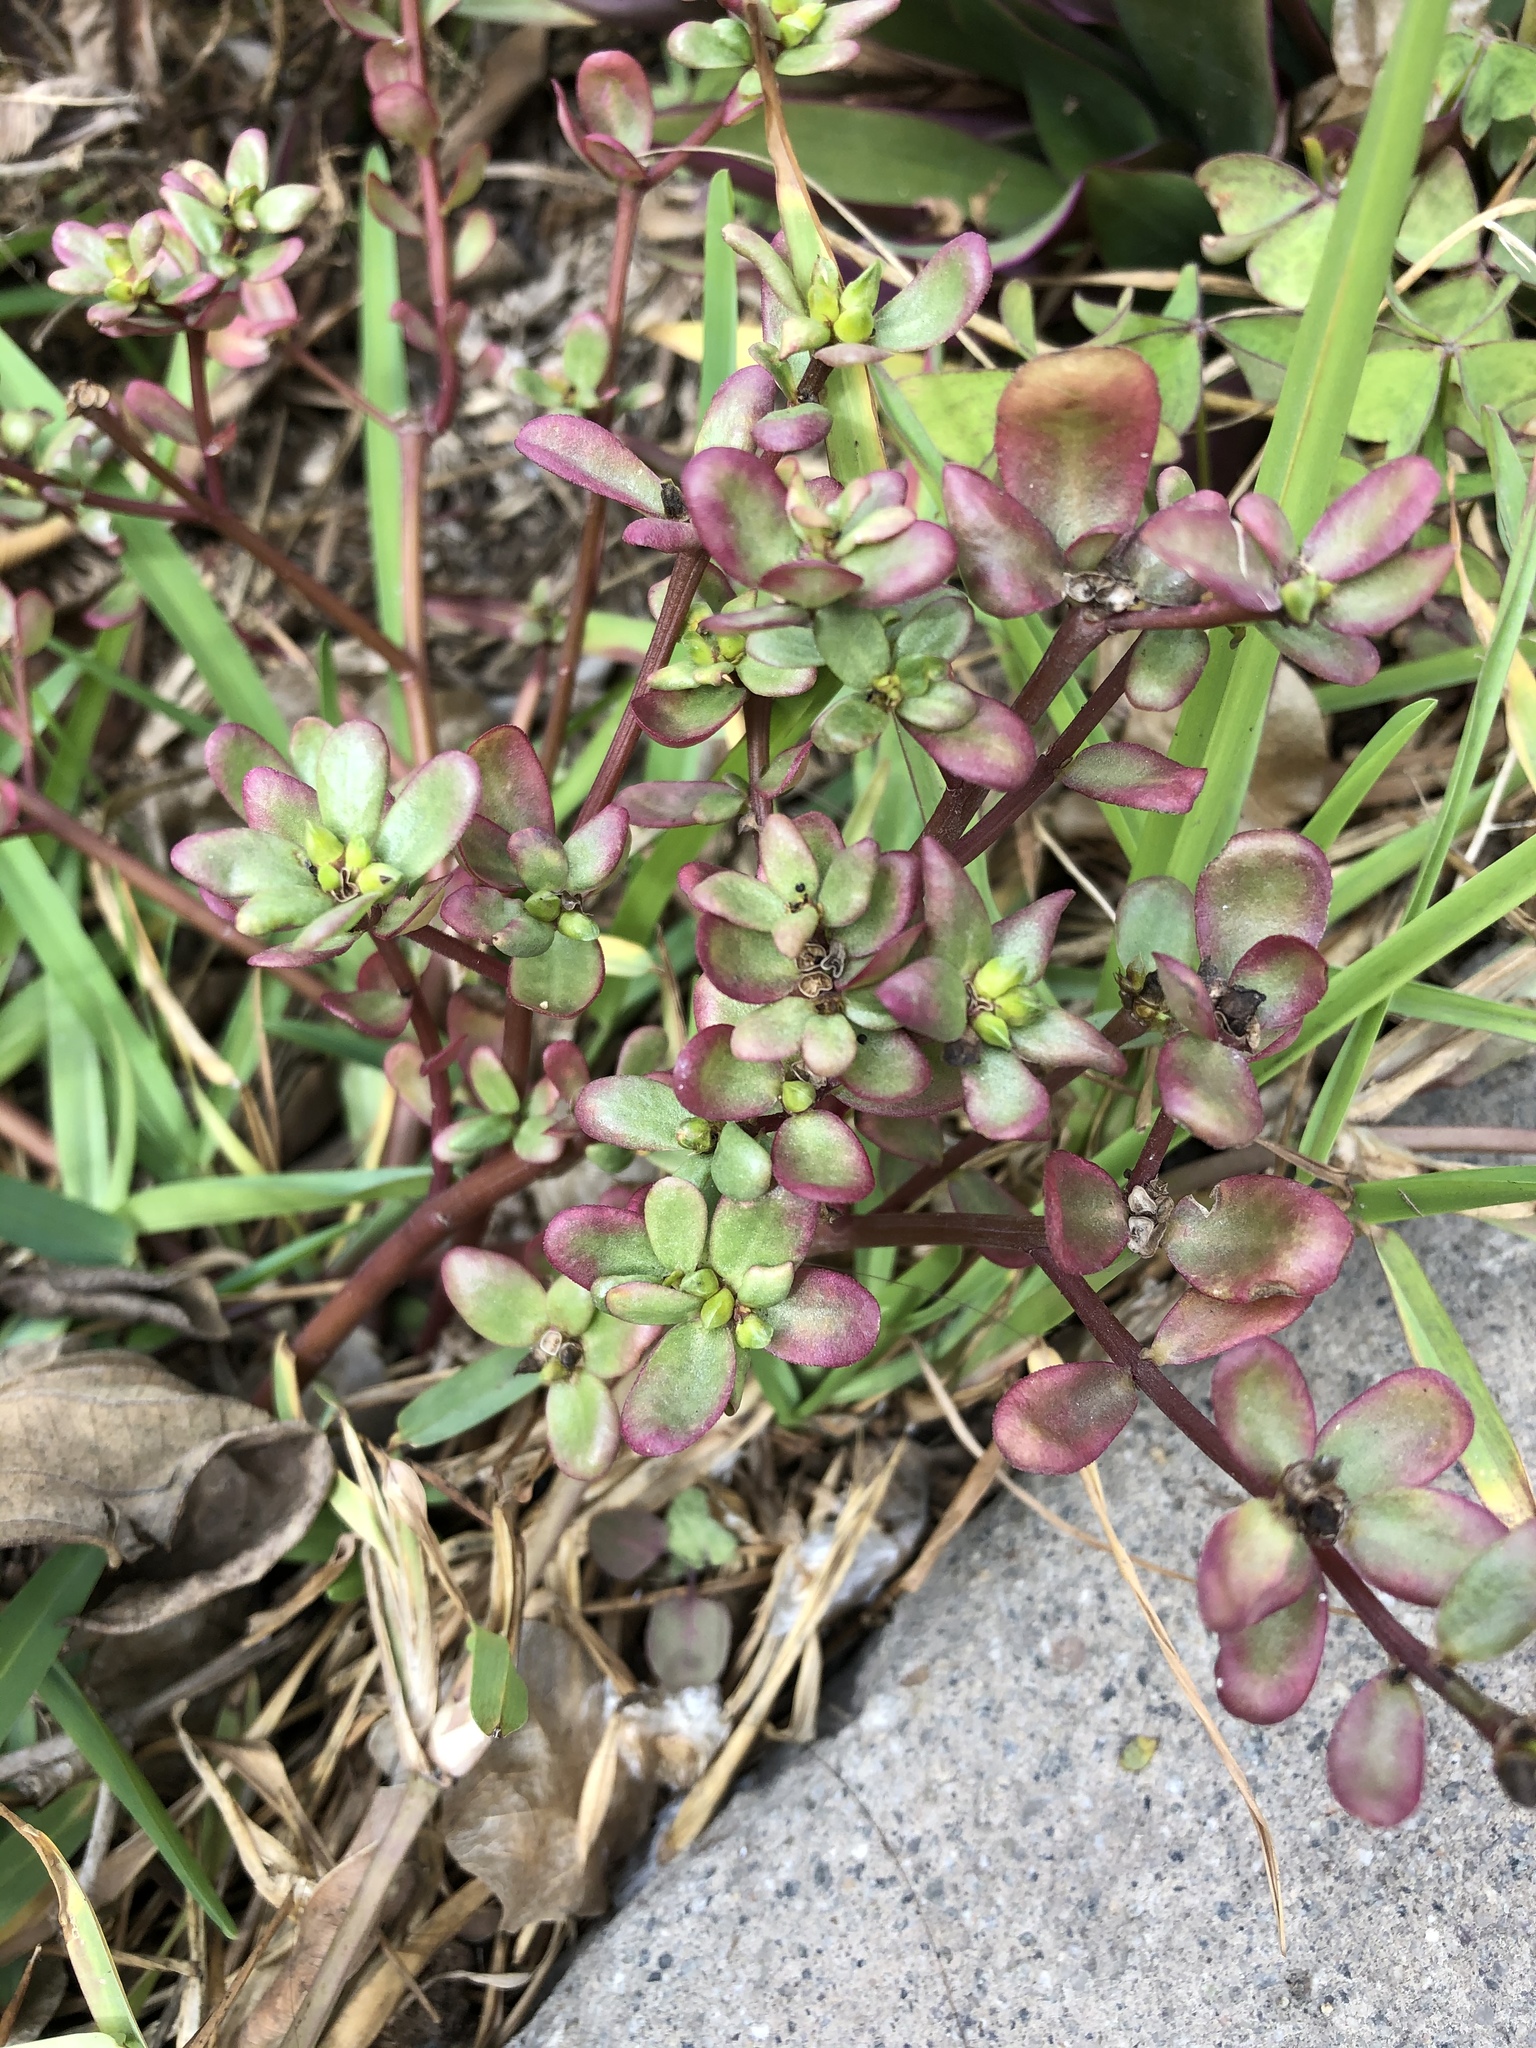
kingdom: Plantae
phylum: Tracheophyta
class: Magnoliopsida
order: Caryophyllales
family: Portulacaceae
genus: Portulaca
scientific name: Portulaca oleracea
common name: Common purslane
